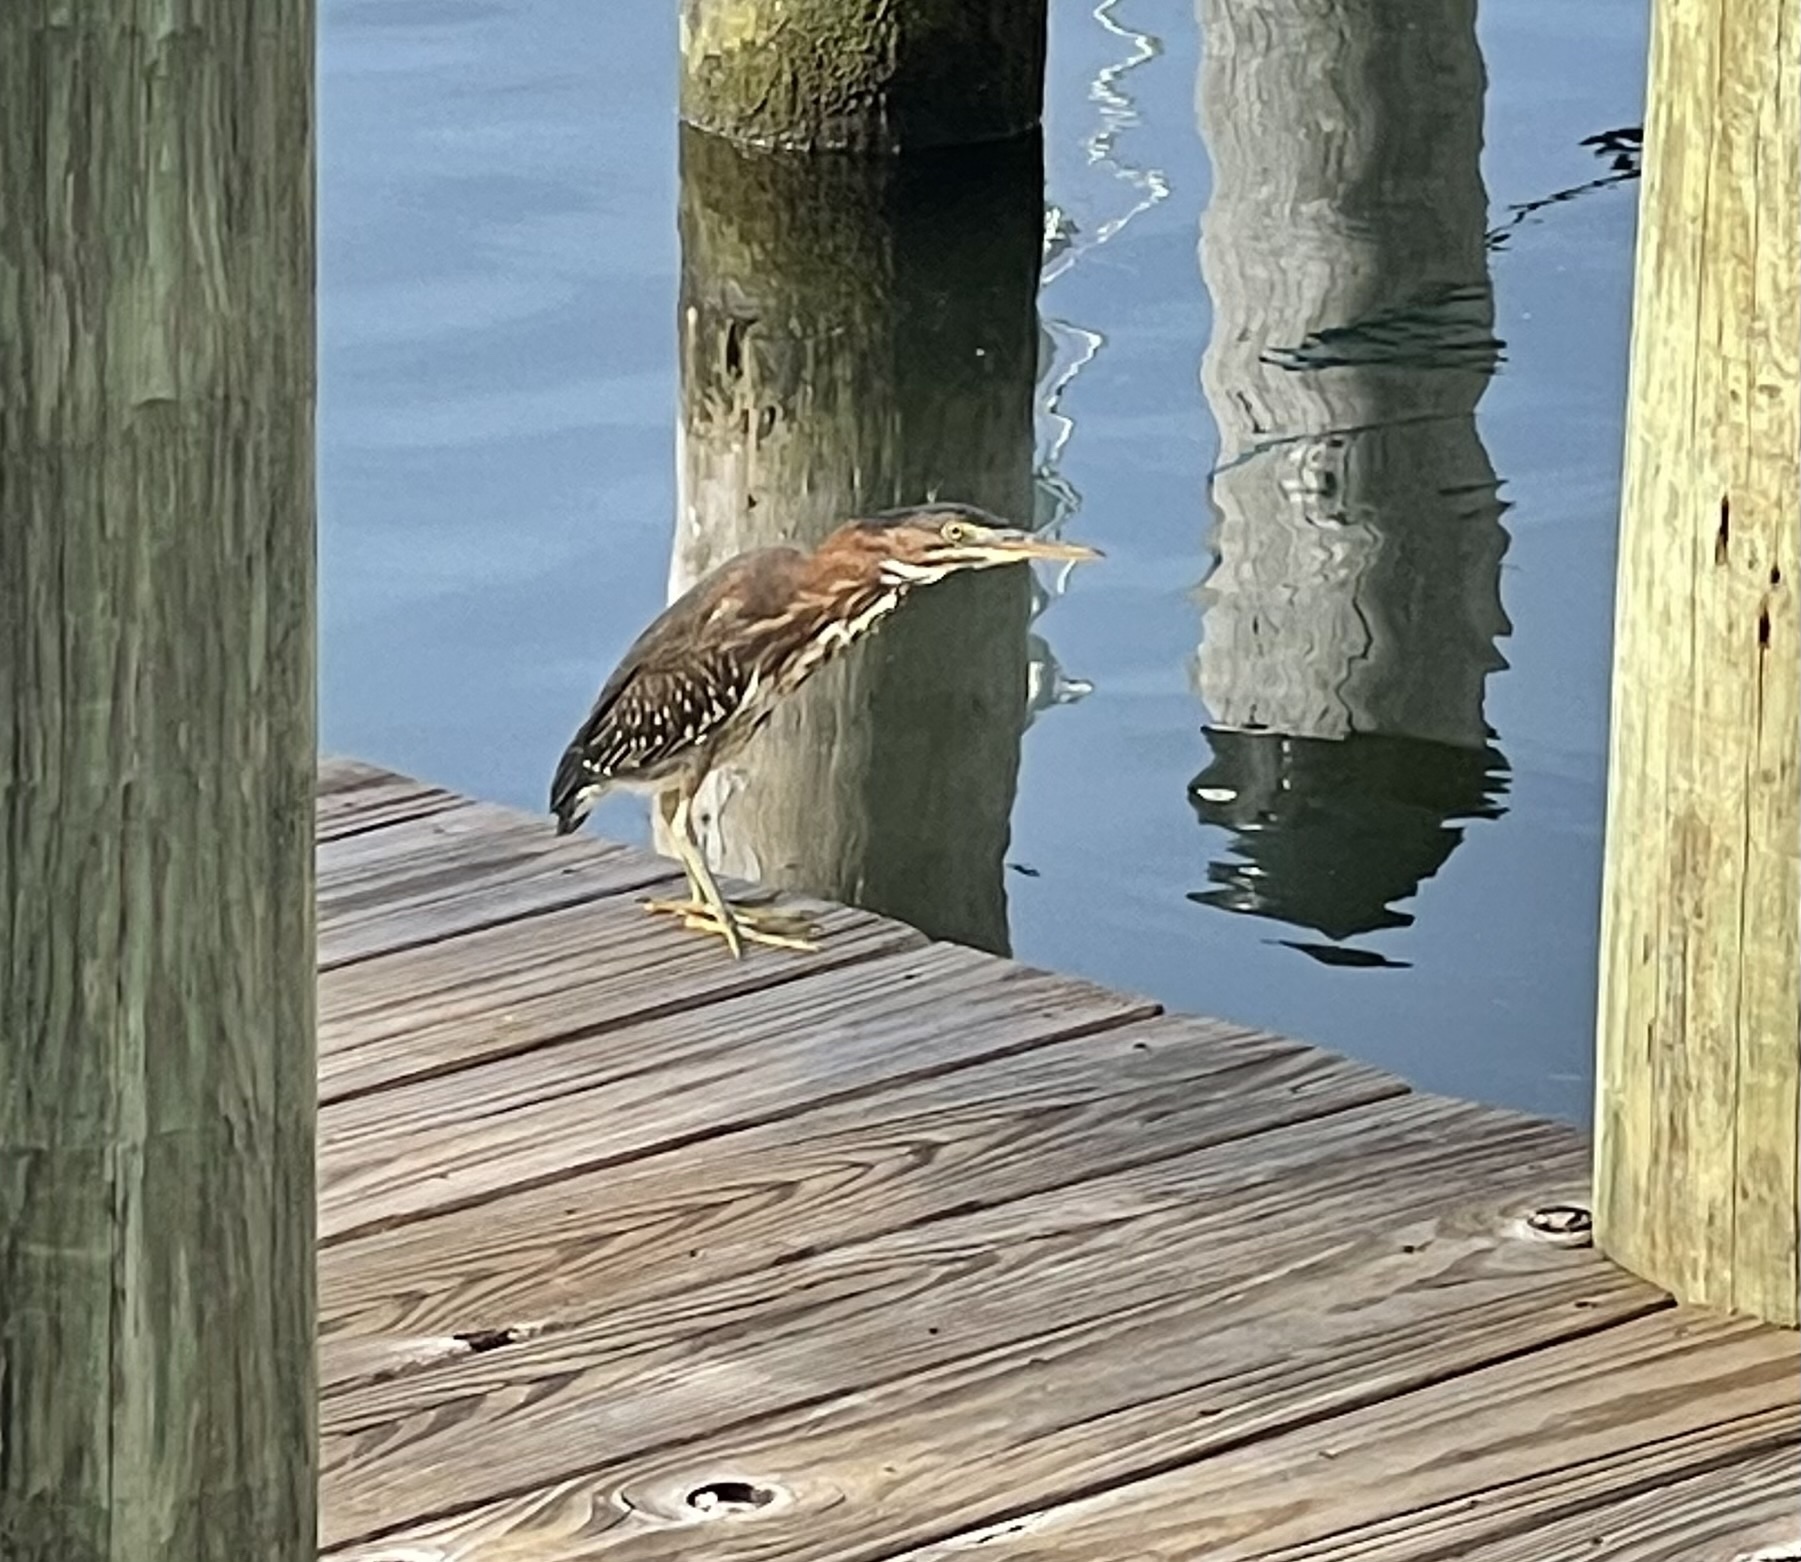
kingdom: Animalia
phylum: Chordata
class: Aves
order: Pelecaniformes
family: Ardeidae
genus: Butorides
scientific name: Butorides virescens
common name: Green heron
